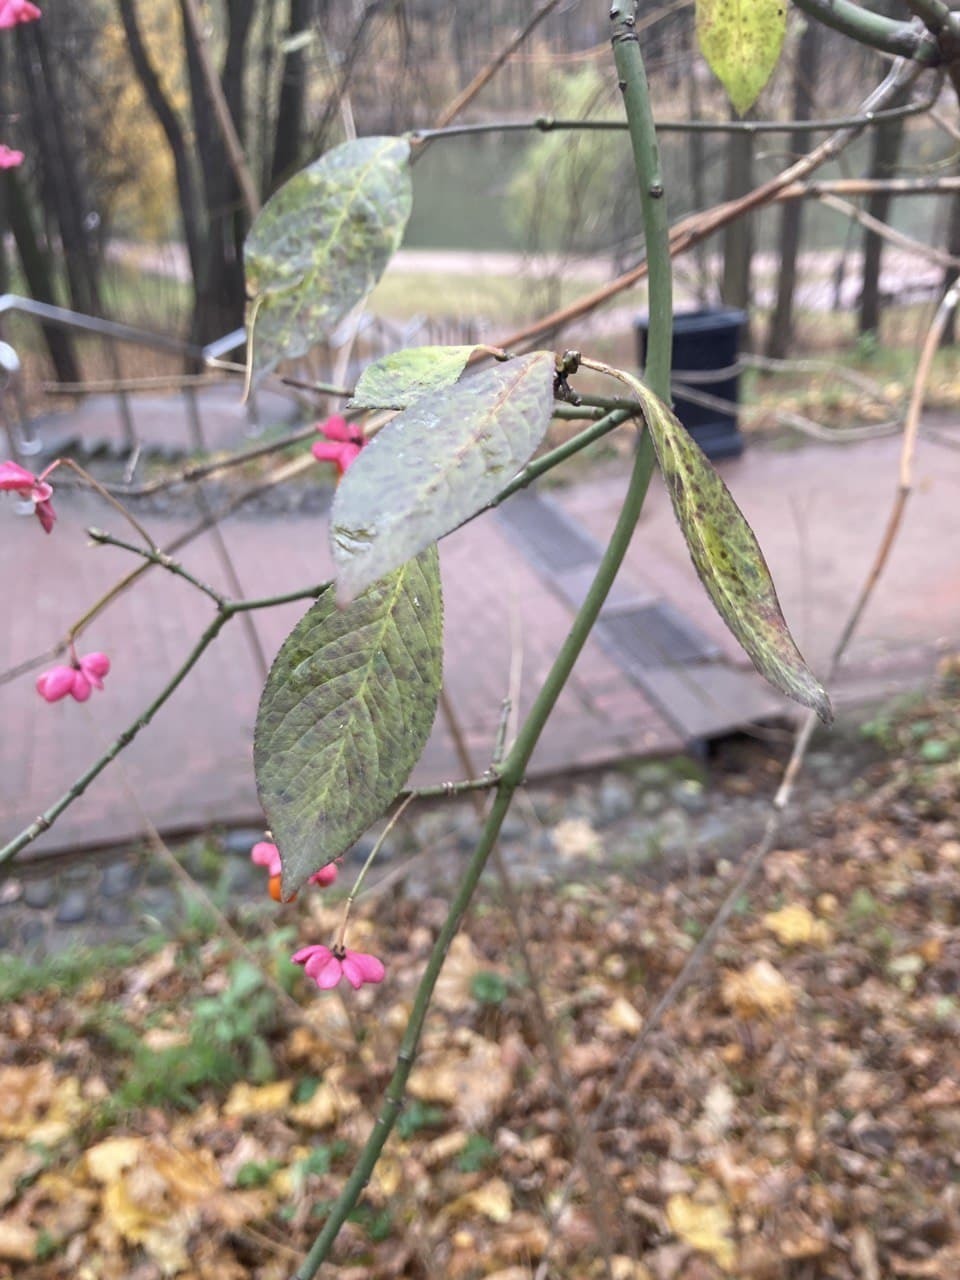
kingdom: Plantae
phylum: Tracheophyta
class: Magnoliopsida
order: Celastrales
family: Celastraceae
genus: Euonymus
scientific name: Euonymus europaeus
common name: Spindle
